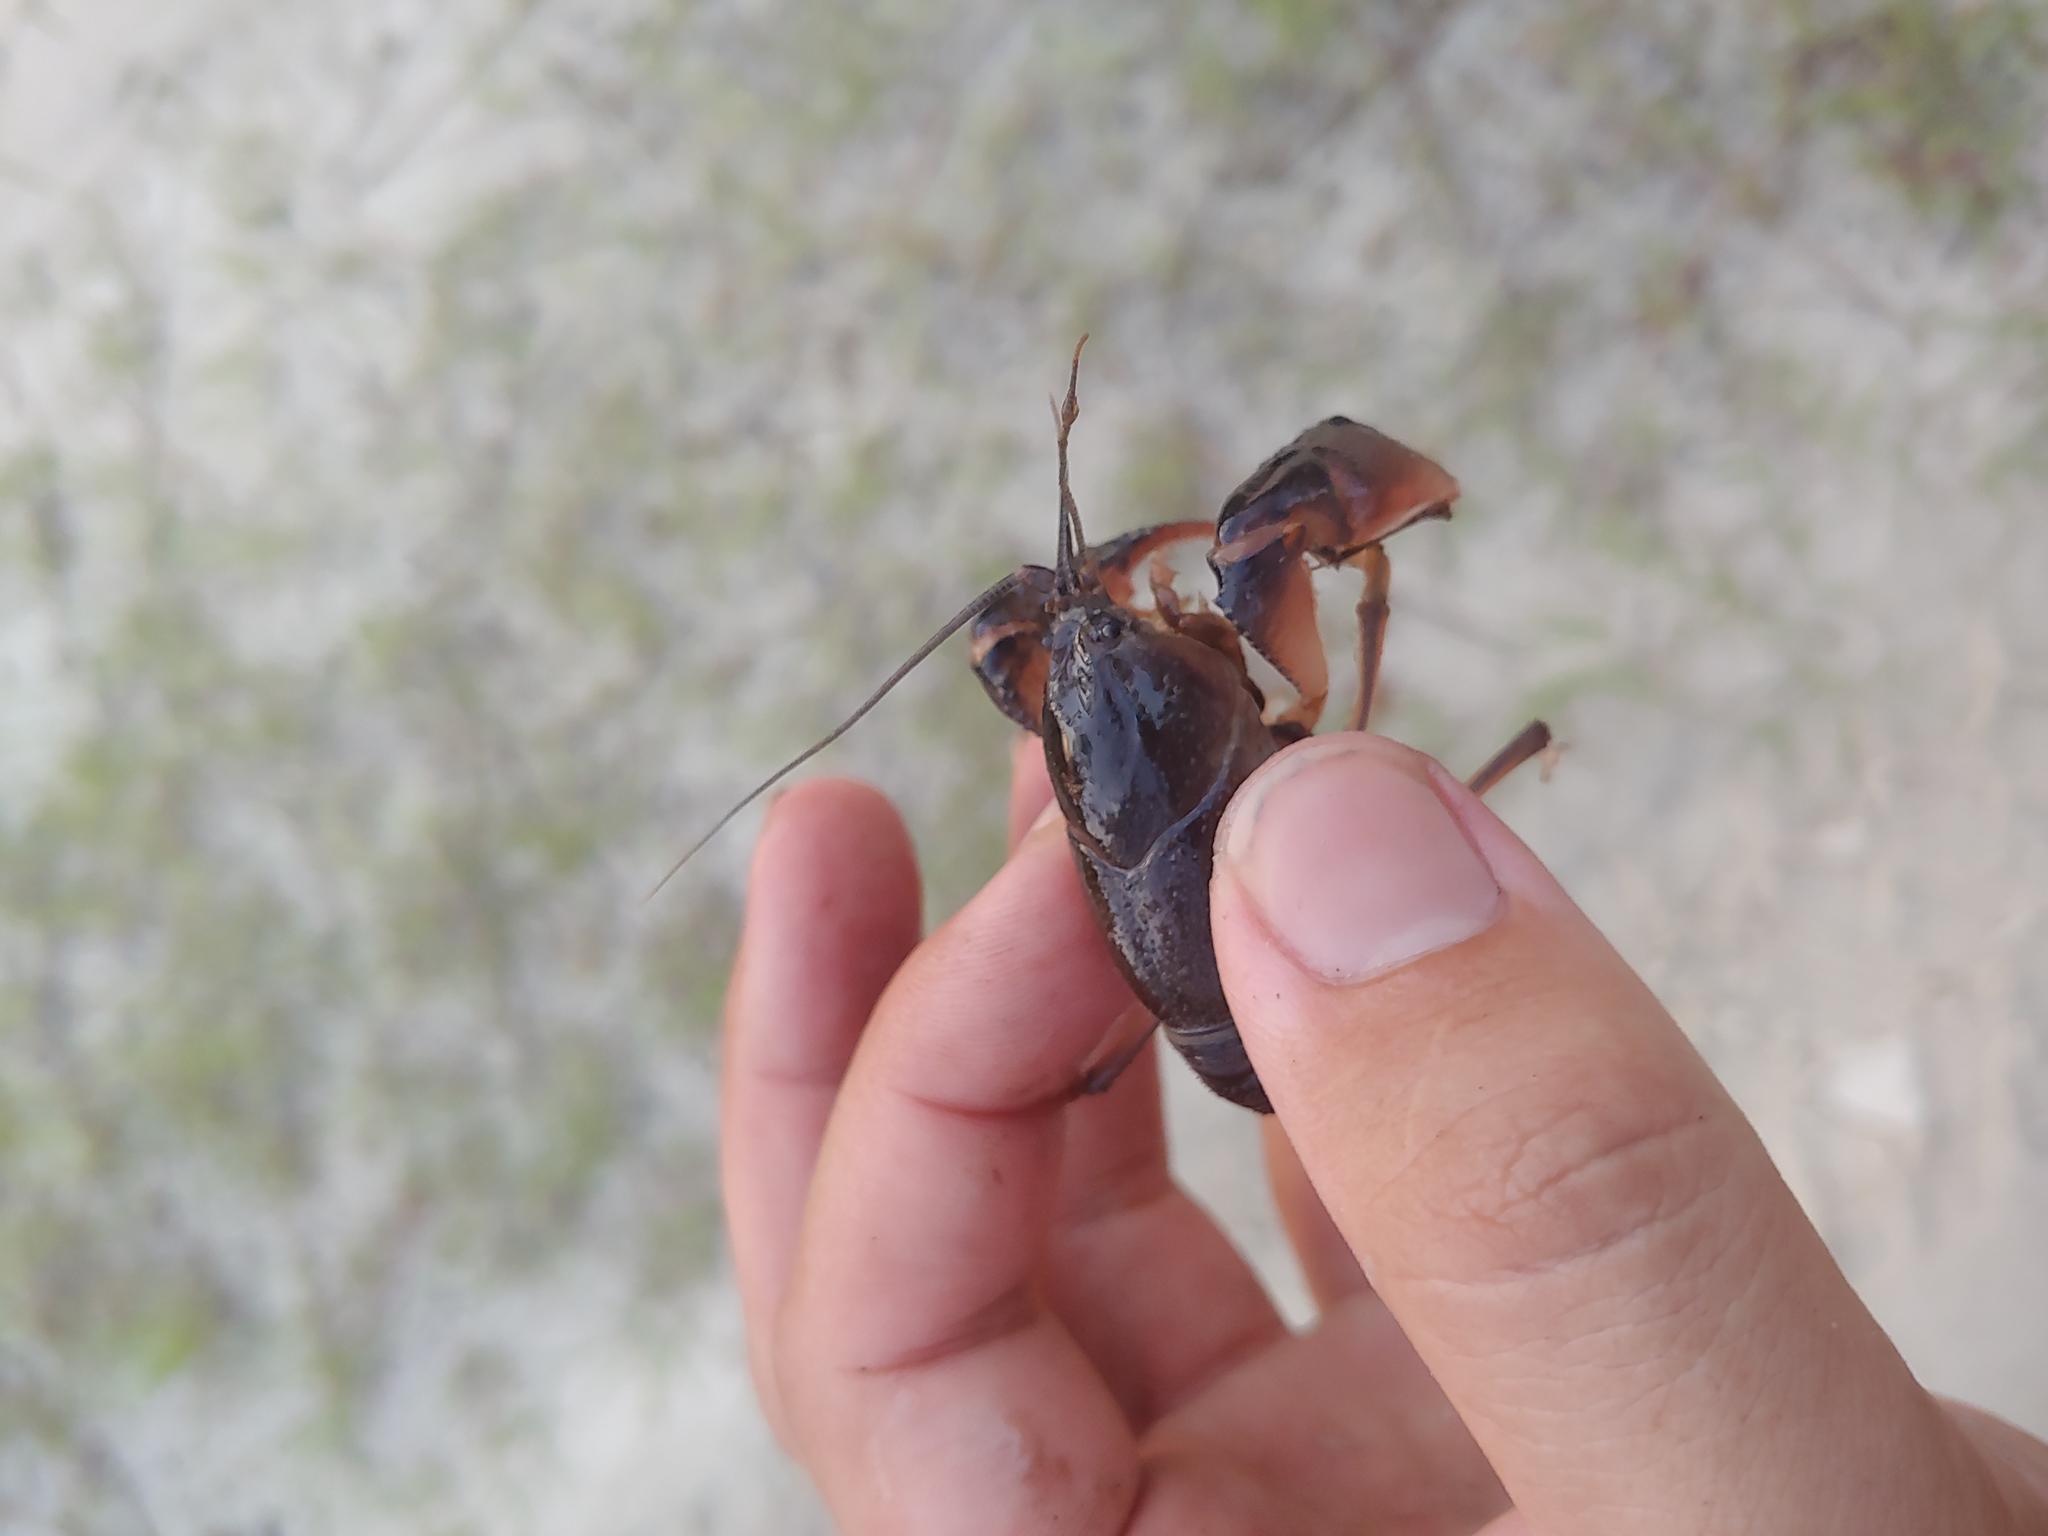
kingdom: Animalia
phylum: Arthropoda
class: Malacostraca
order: Decapoda
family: Cambaridae
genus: Procambarus
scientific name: Procambarus rogersi
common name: Field crayfish
